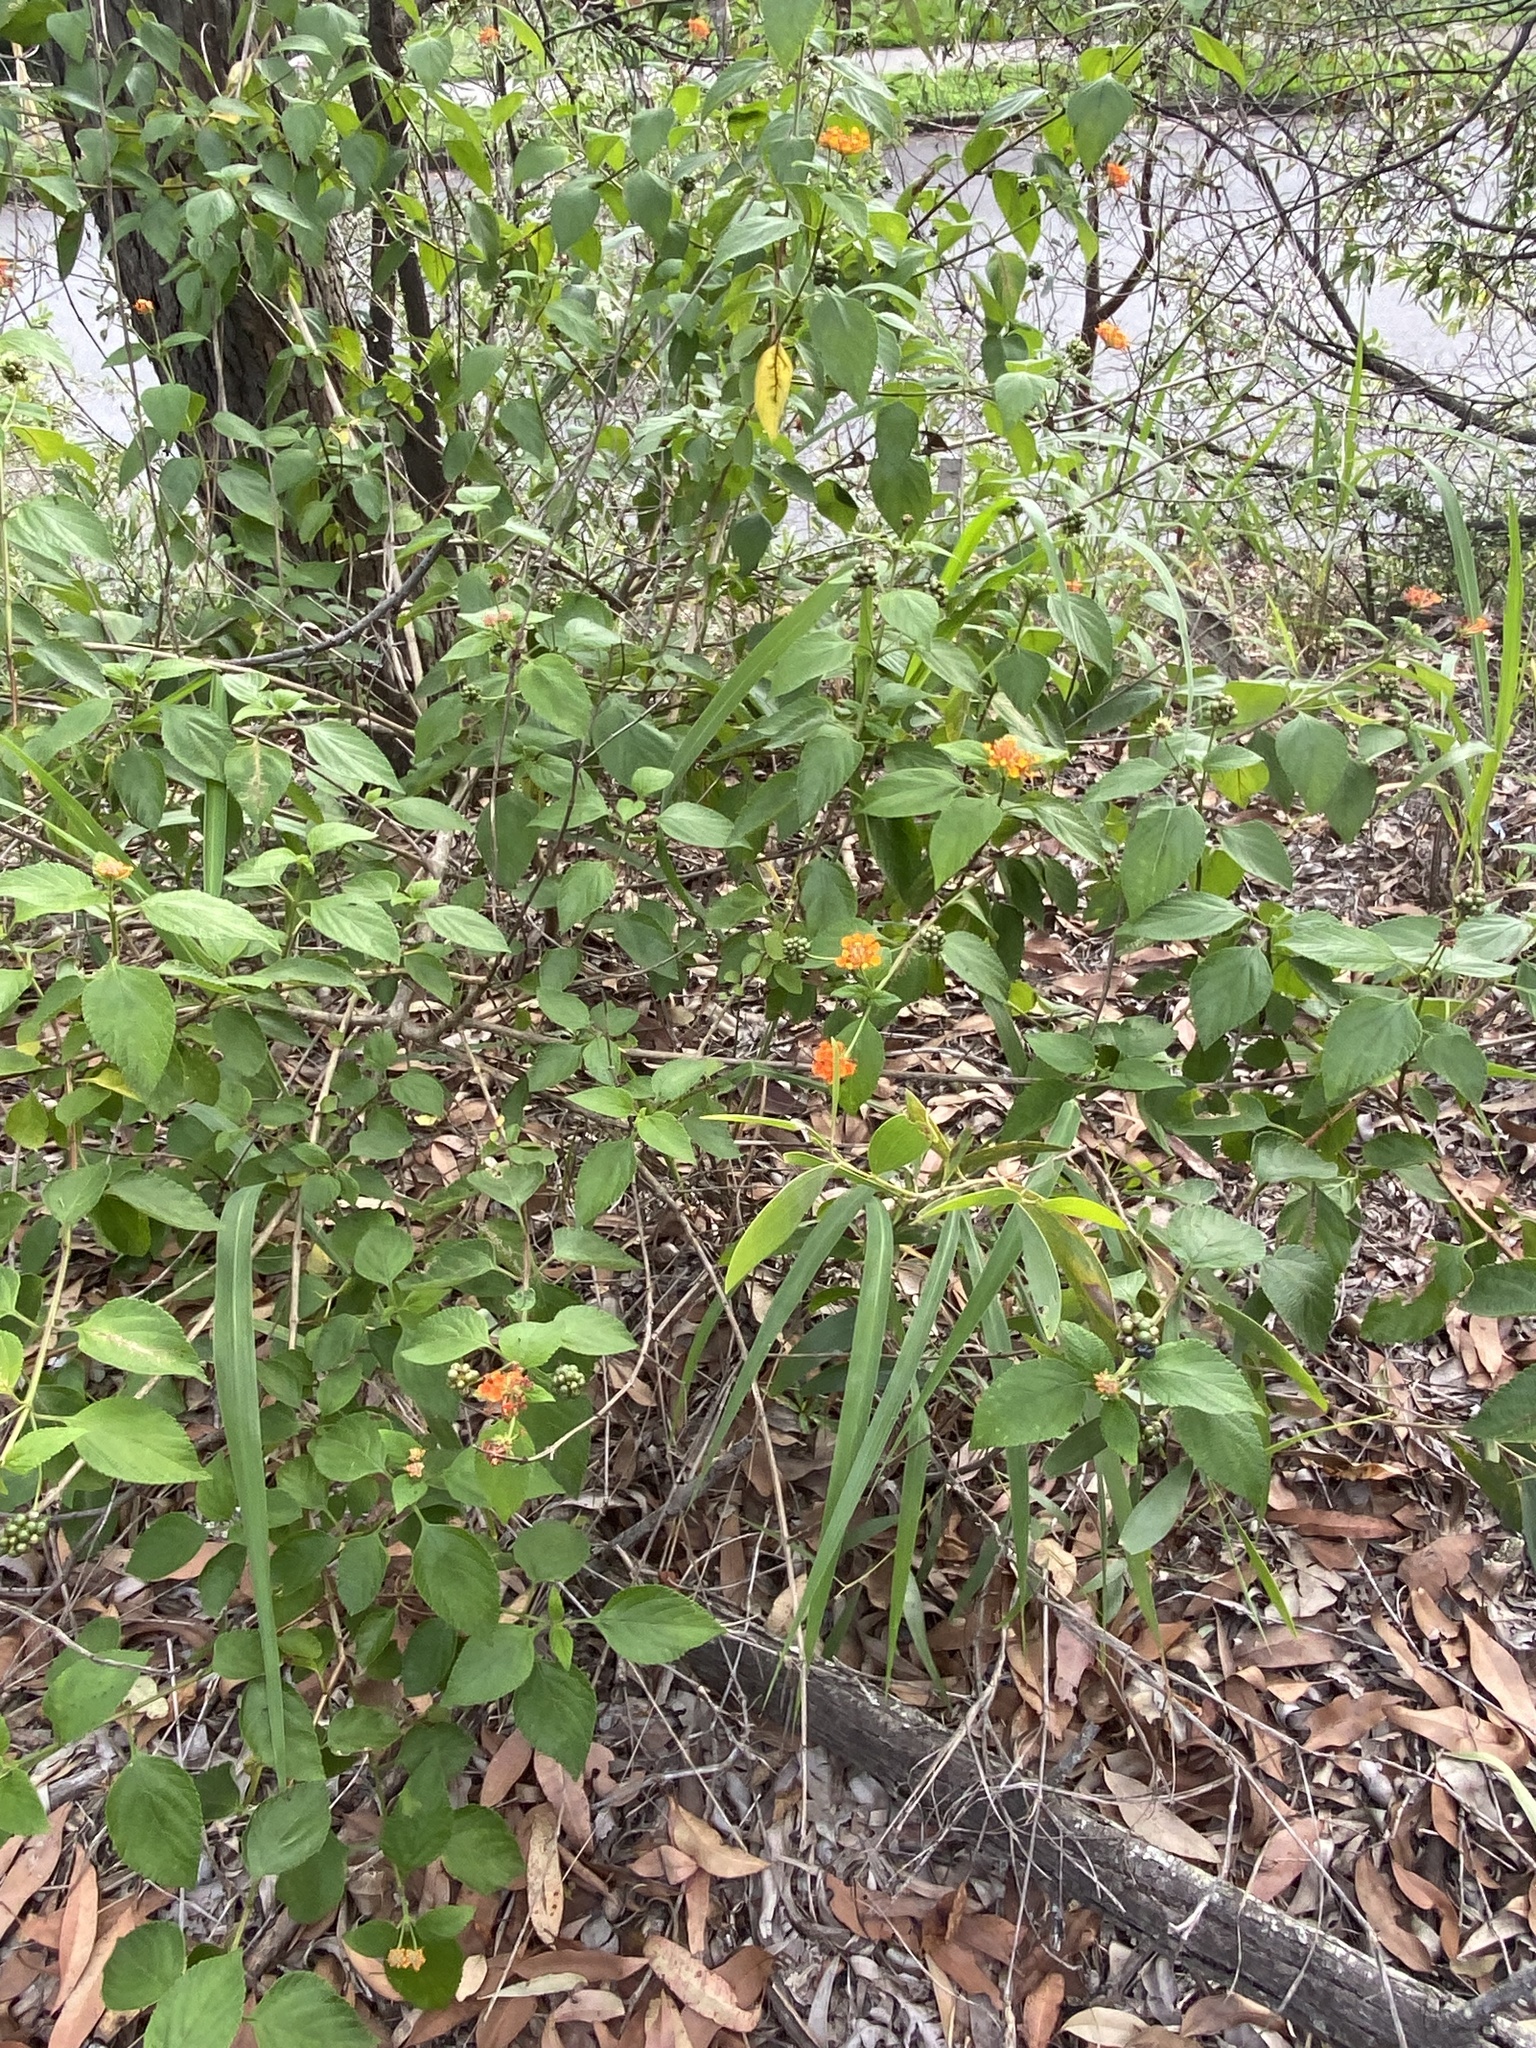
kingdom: Plantae
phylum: Tracheophyta
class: Magnoliopsida
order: Lamiales
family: Verbenaceae
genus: Lantana
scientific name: Lantana camara
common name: Lantana
